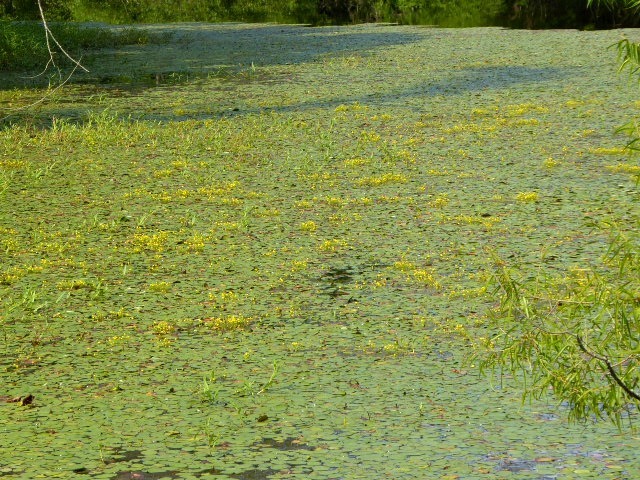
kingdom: Plantae
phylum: Tracheophyta
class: Magnoliopsida
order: Lamiales
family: Lentibulariaceae
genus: Utricularia
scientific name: Utricularia gibba
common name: Humped bladderwort
